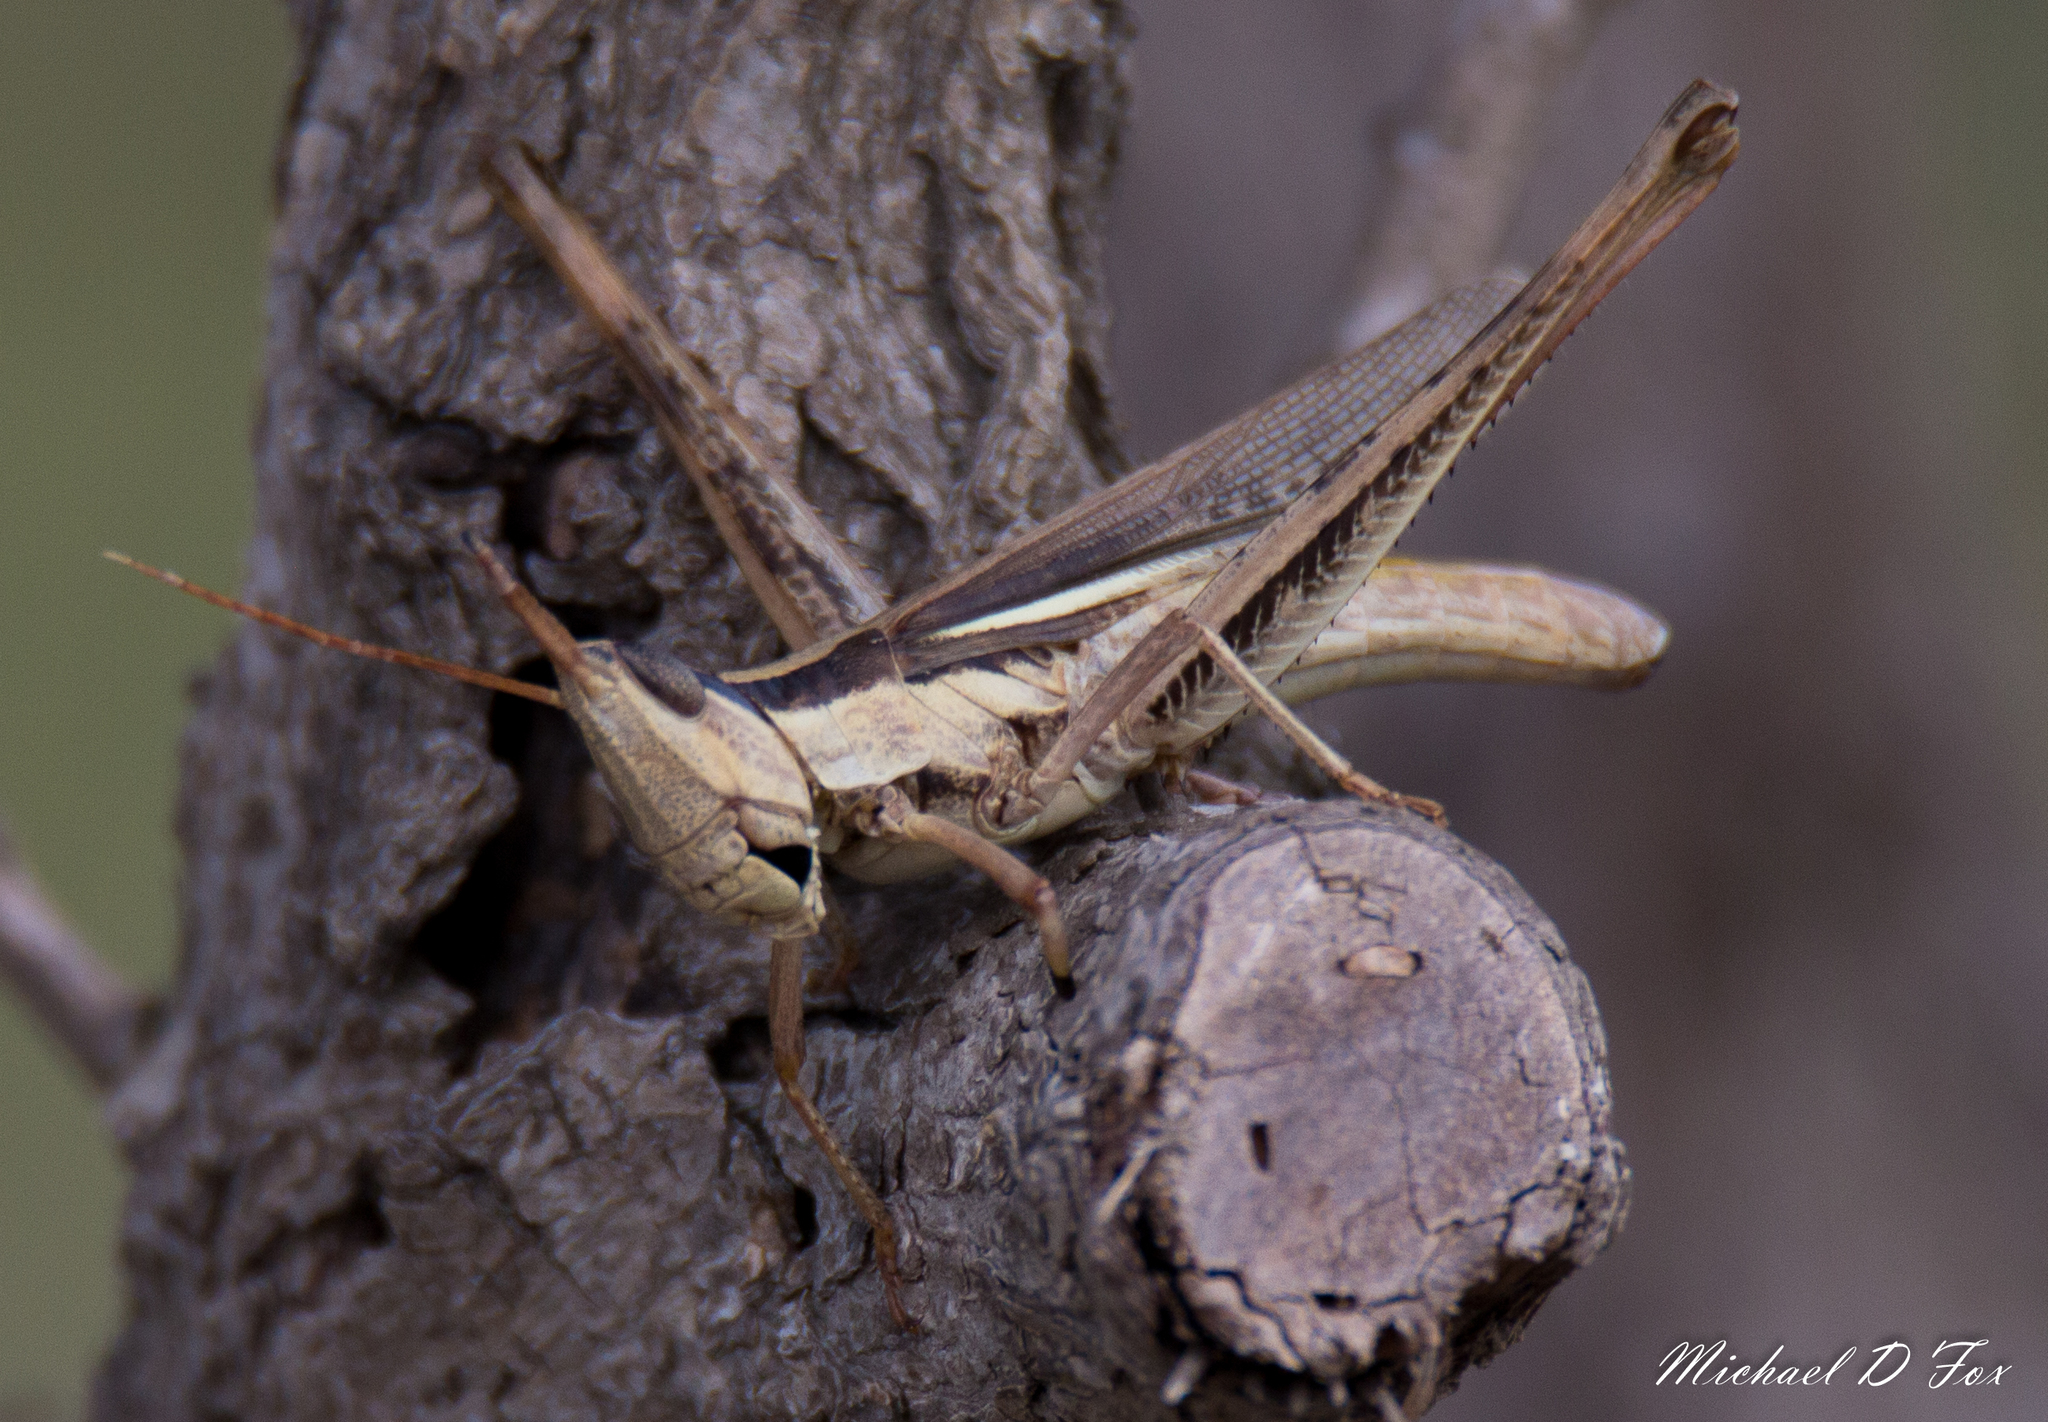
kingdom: Animalia
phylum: Arthropoda
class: Insecta
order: Orthoptera
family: Acrididae
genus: Mermiria
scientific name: Mermiria bivittata
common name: Two-striped mermiria grasshopper
